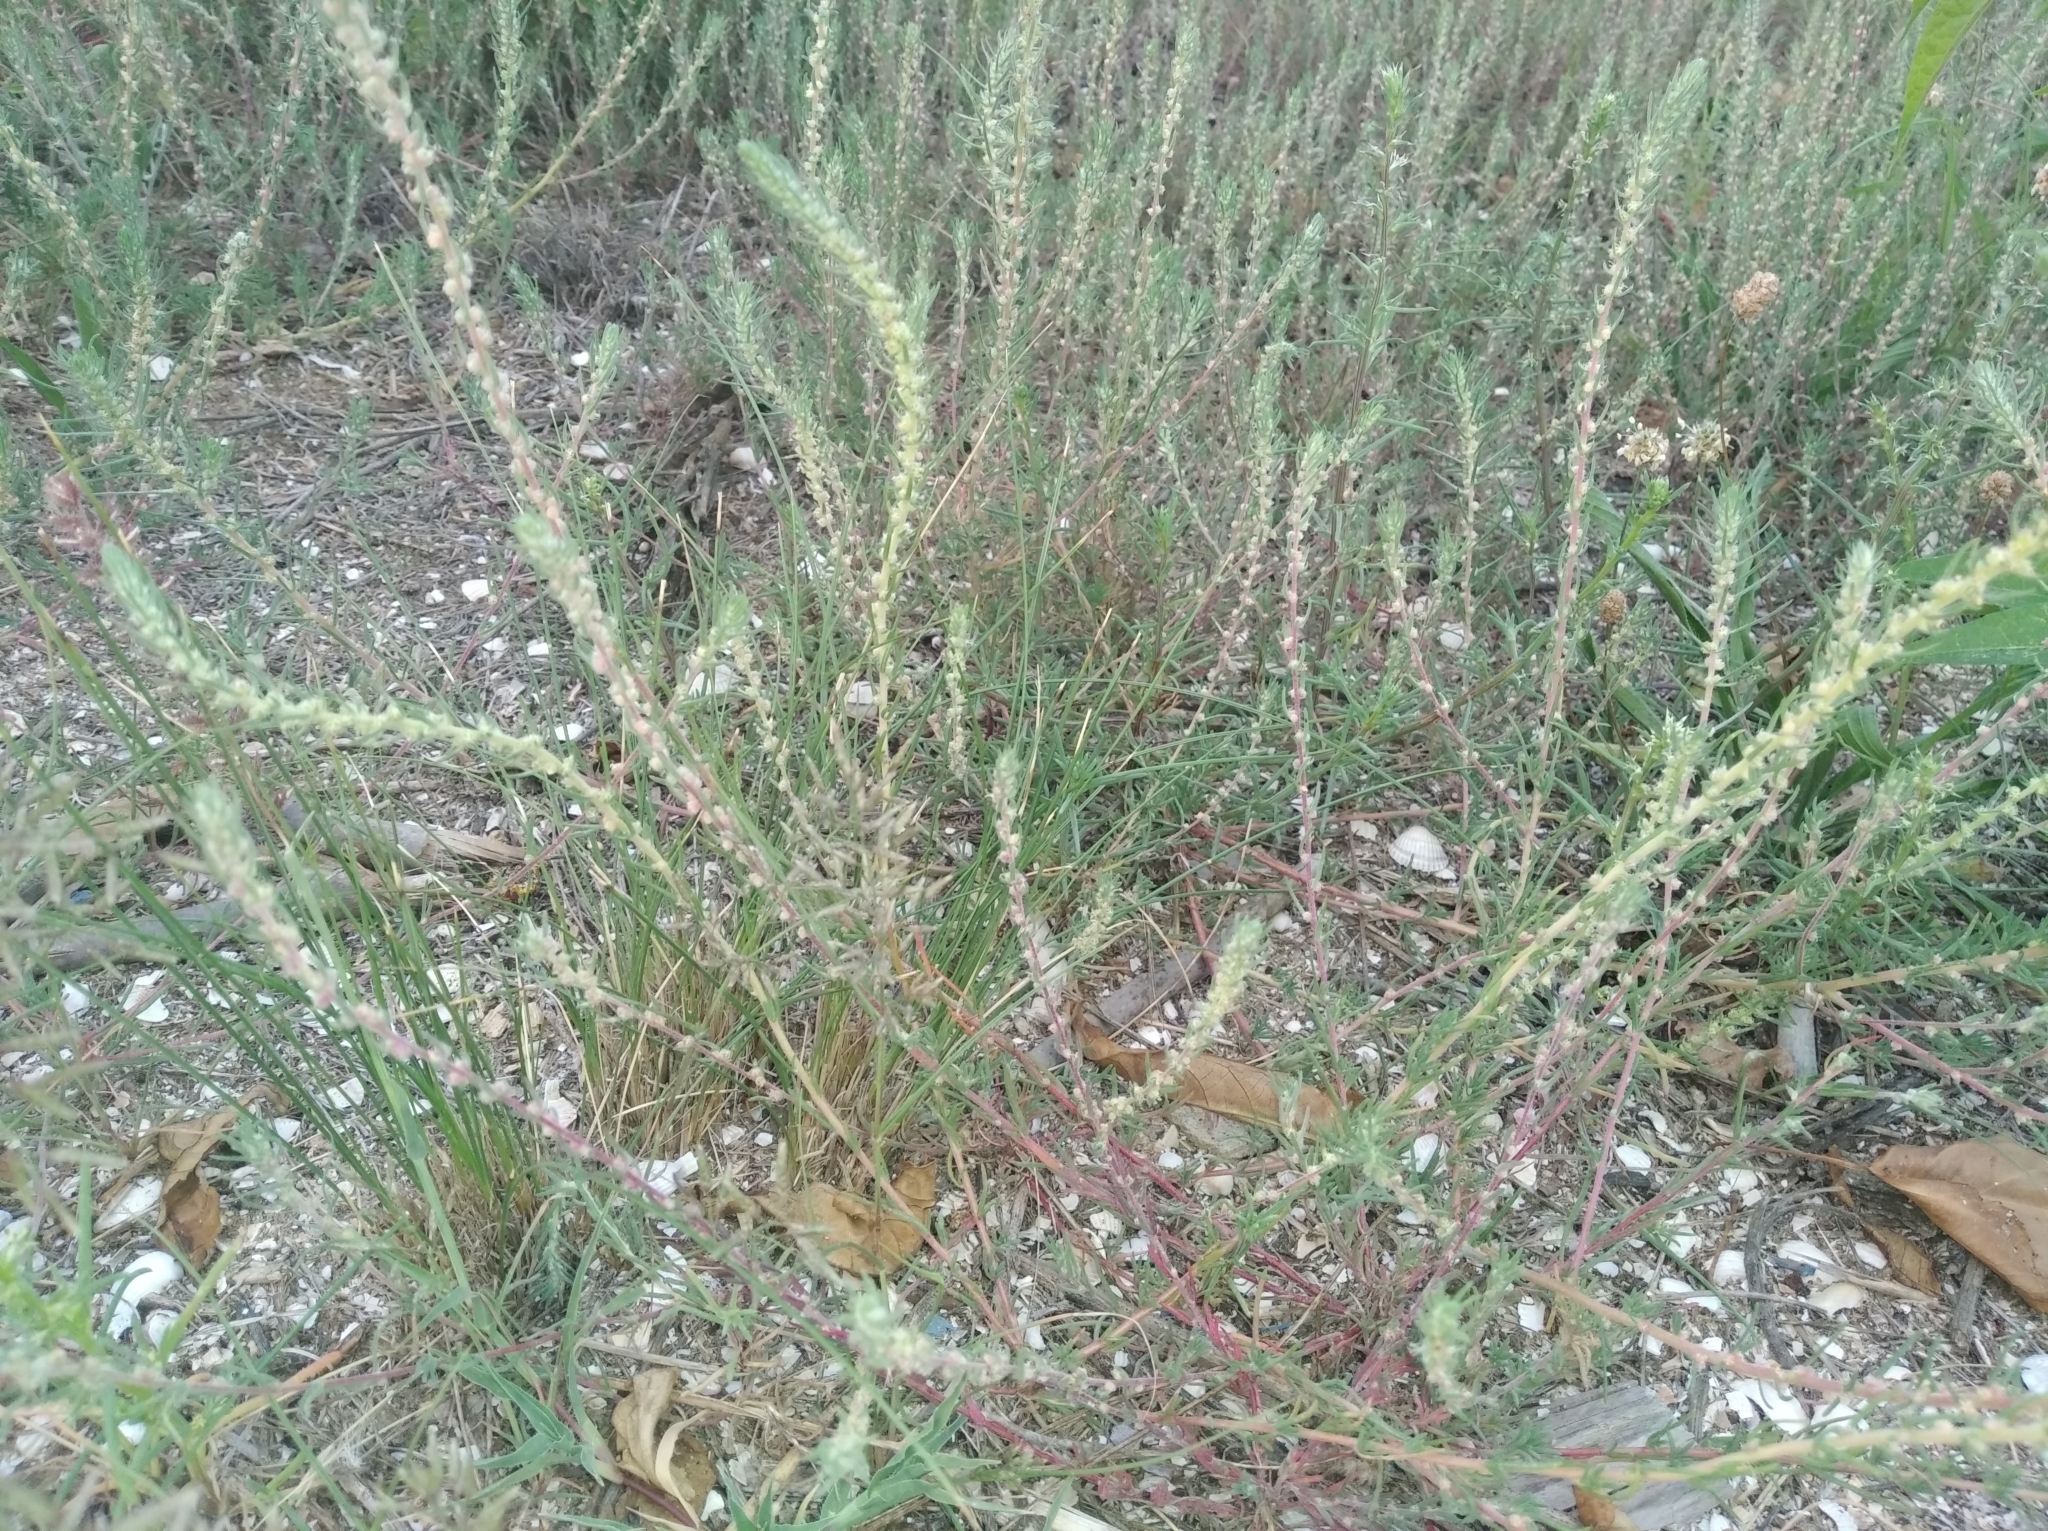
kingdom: Plantae
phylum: Tracheophyta
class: Magnoliopsida
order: Caryophyllales
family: Amaranthaceae
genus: Bassia
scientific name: Bassia laniflora
